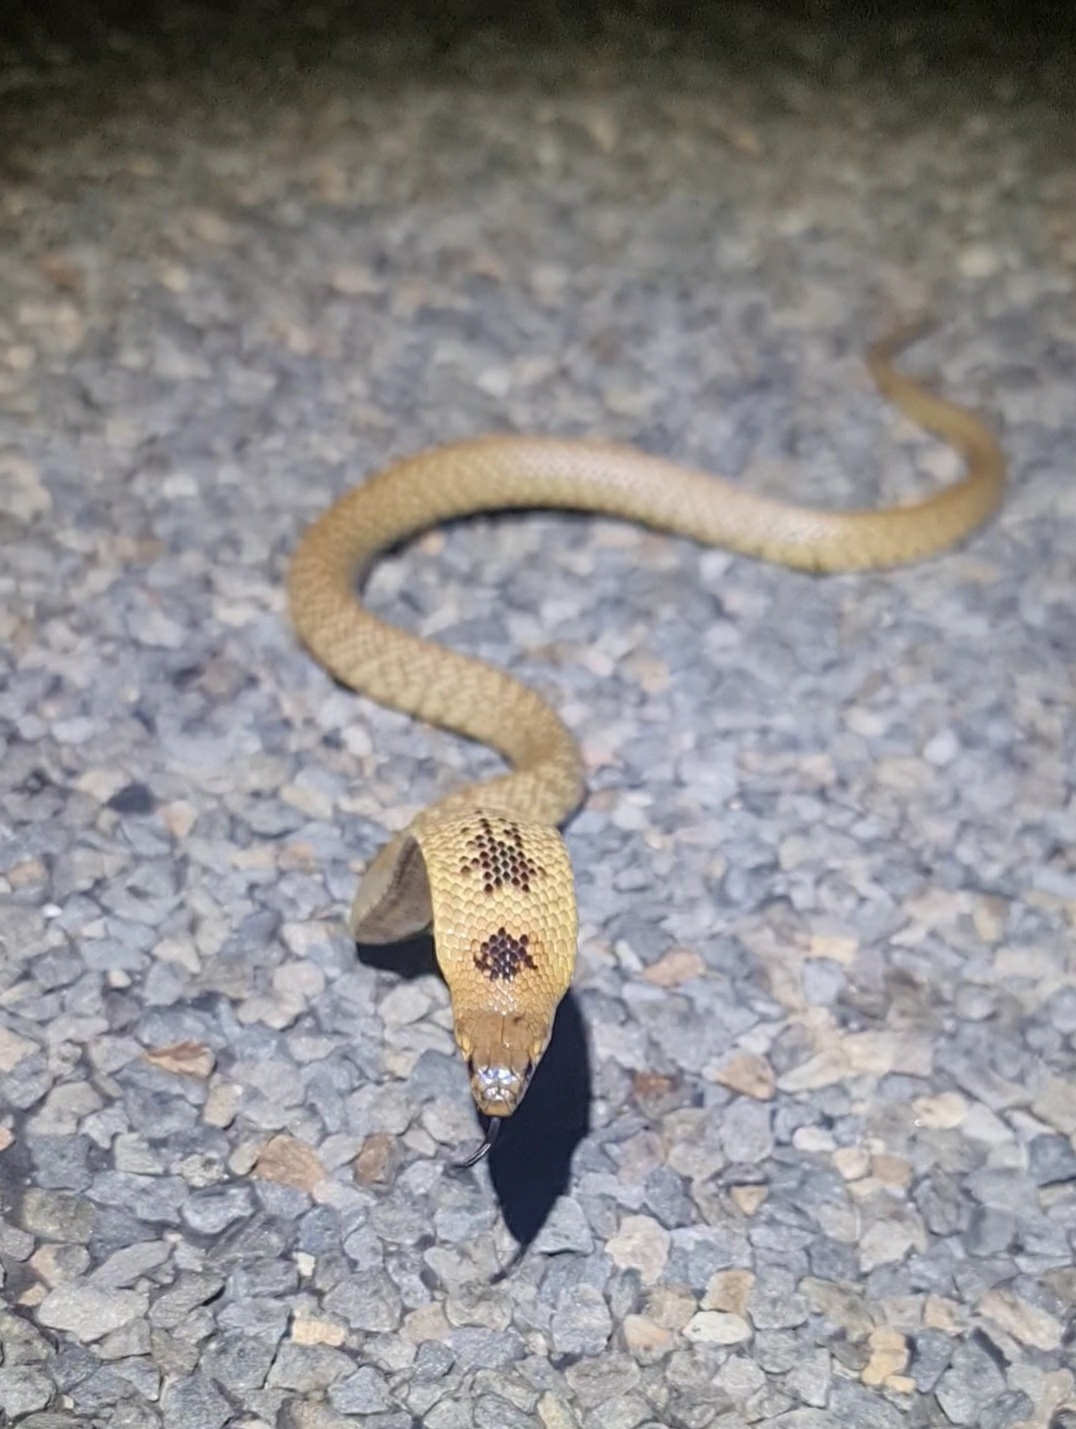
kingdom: Animalia
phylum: Chordata
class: Squamata
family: Elapidae
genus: Pseudonaja
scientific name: Pseudonaja aspidorhyncha
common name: Strap-snouted brown snake
